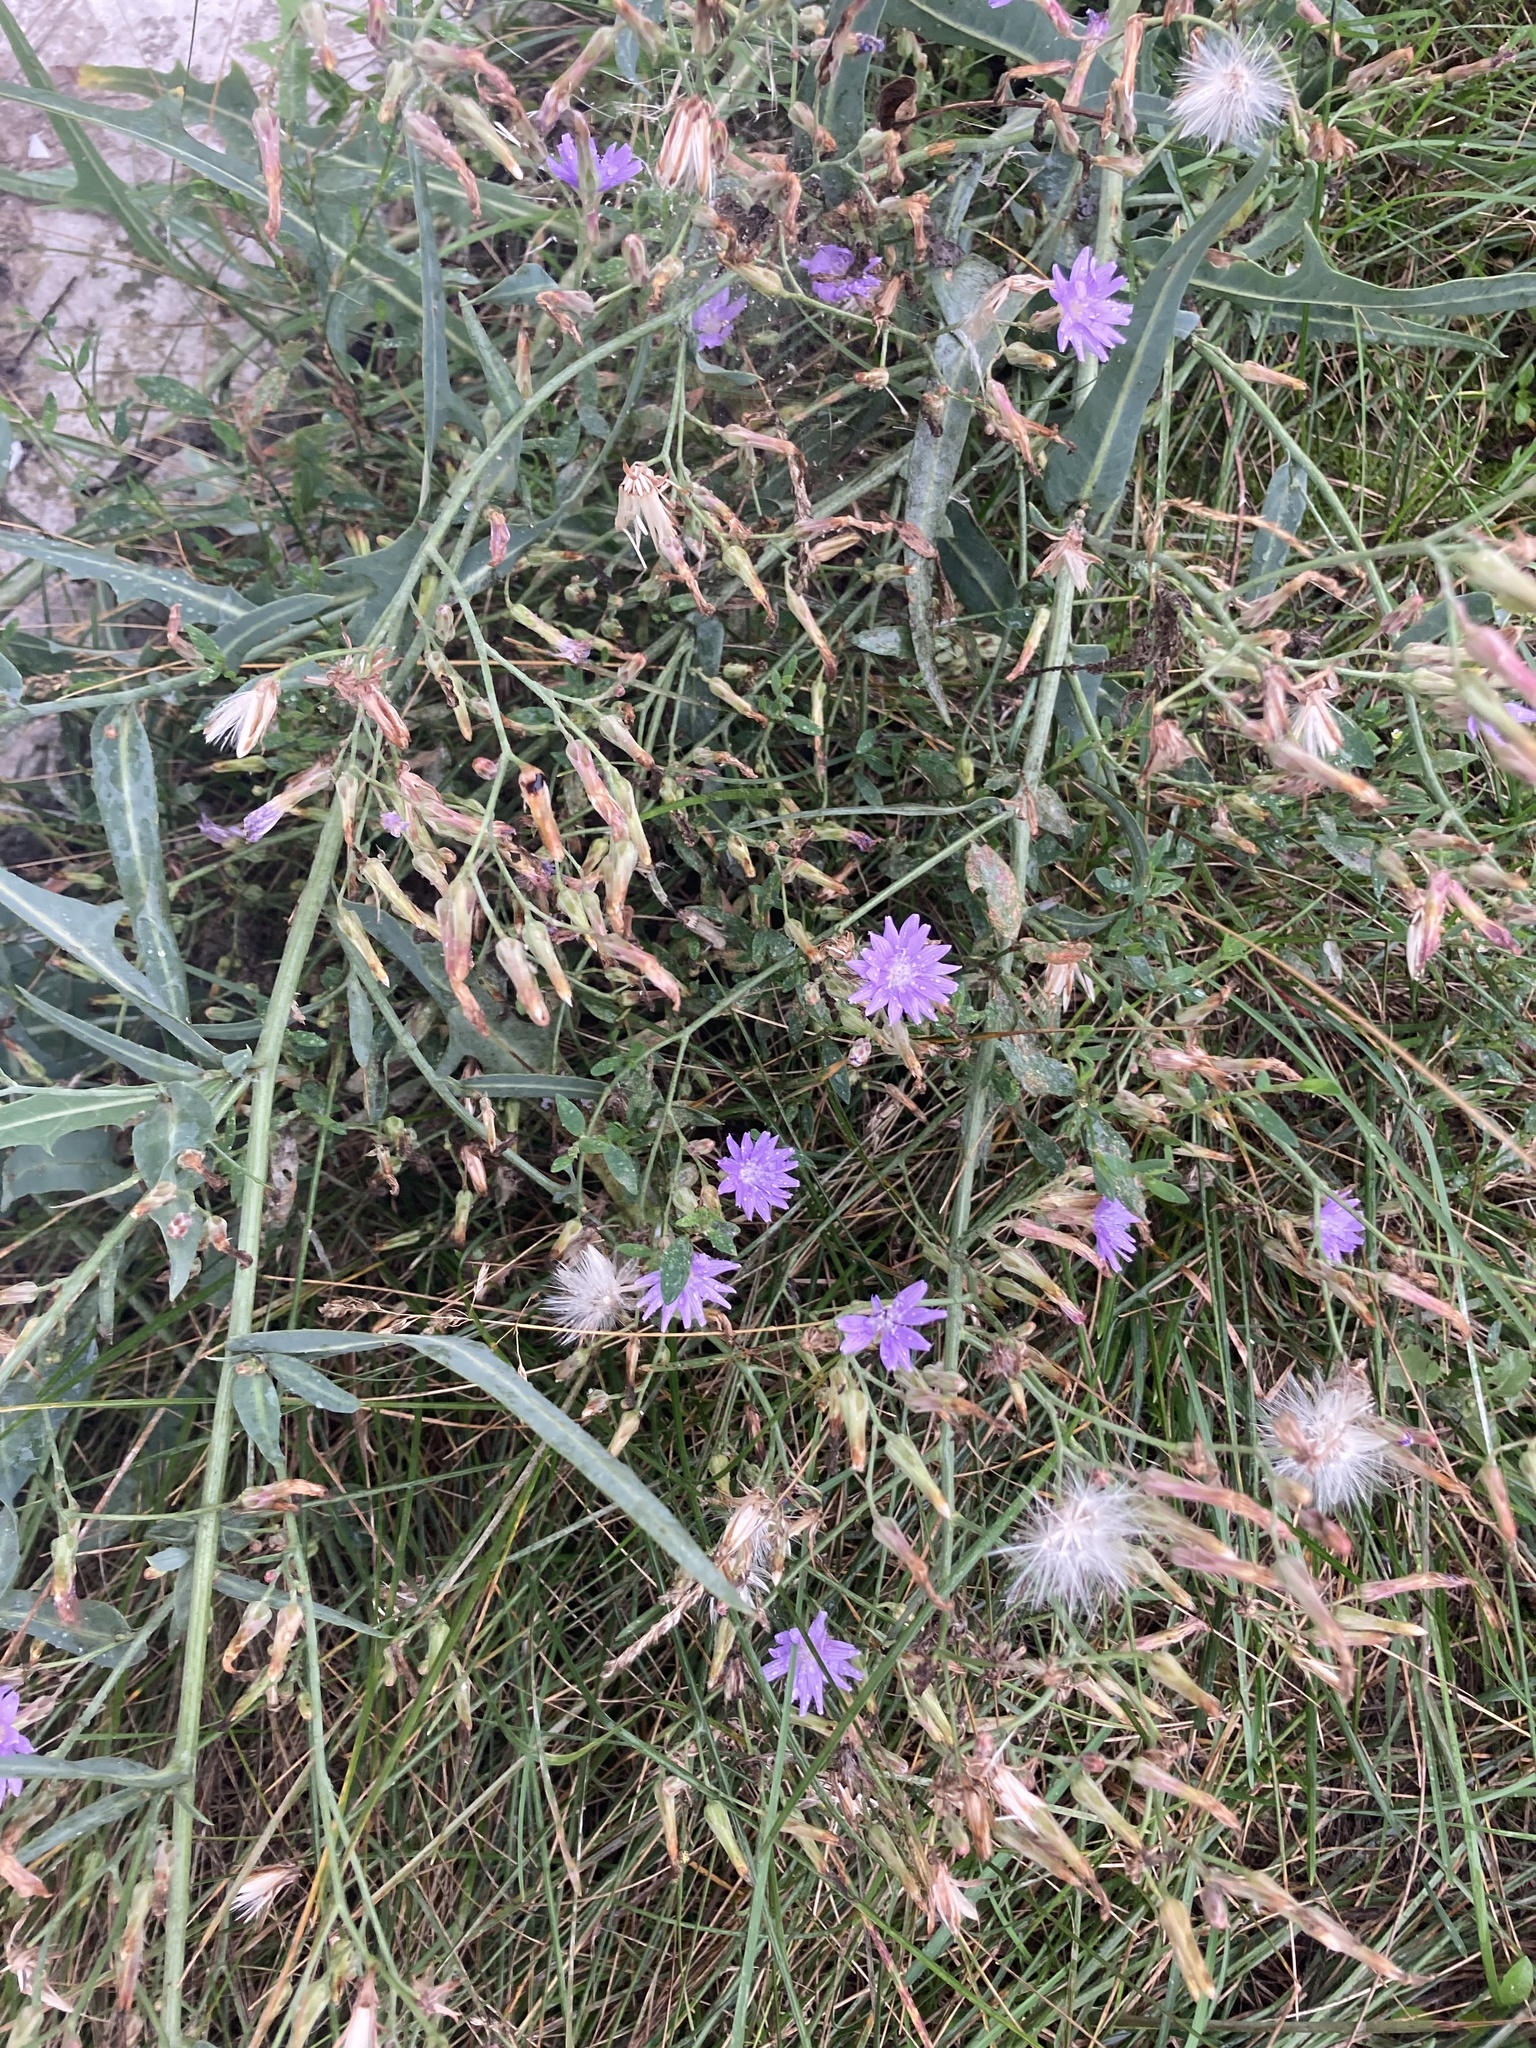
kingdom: Plantae
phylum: Tracheophyta
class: Magnoliopsida
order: Asterales
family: Asteraceae
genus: Lactuca
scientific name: Lactuca tatarica
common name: Blue lettuce
